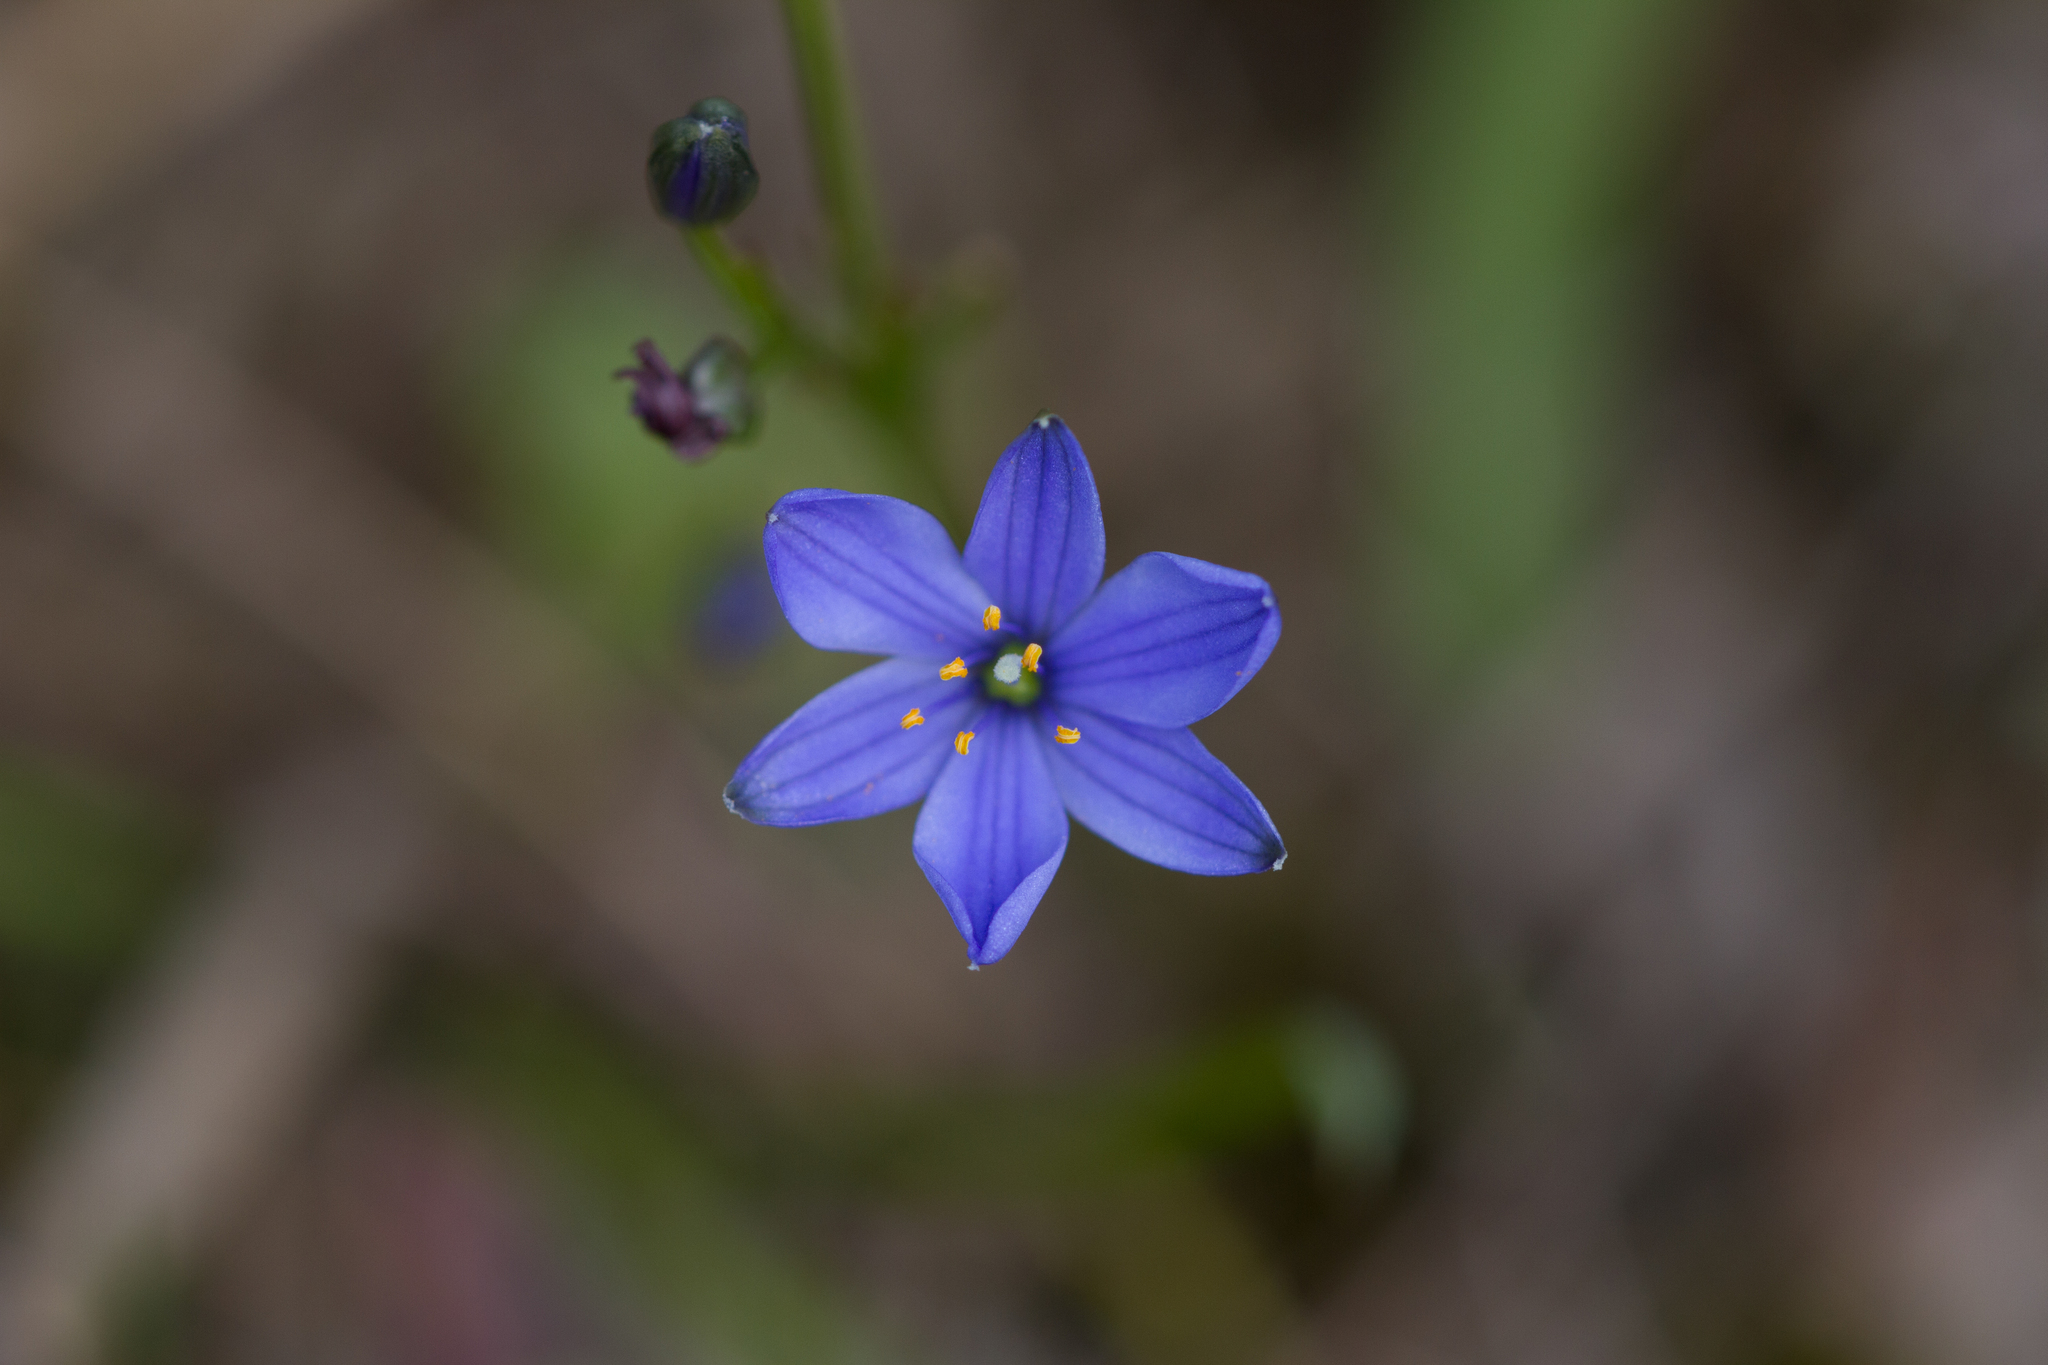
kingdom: Plantae
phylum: Tracheophyta
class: Liliopsida
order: Asparagales
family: Asphodelaceae
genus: Chamaescilla
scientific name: Chamaescilla corymbosa
